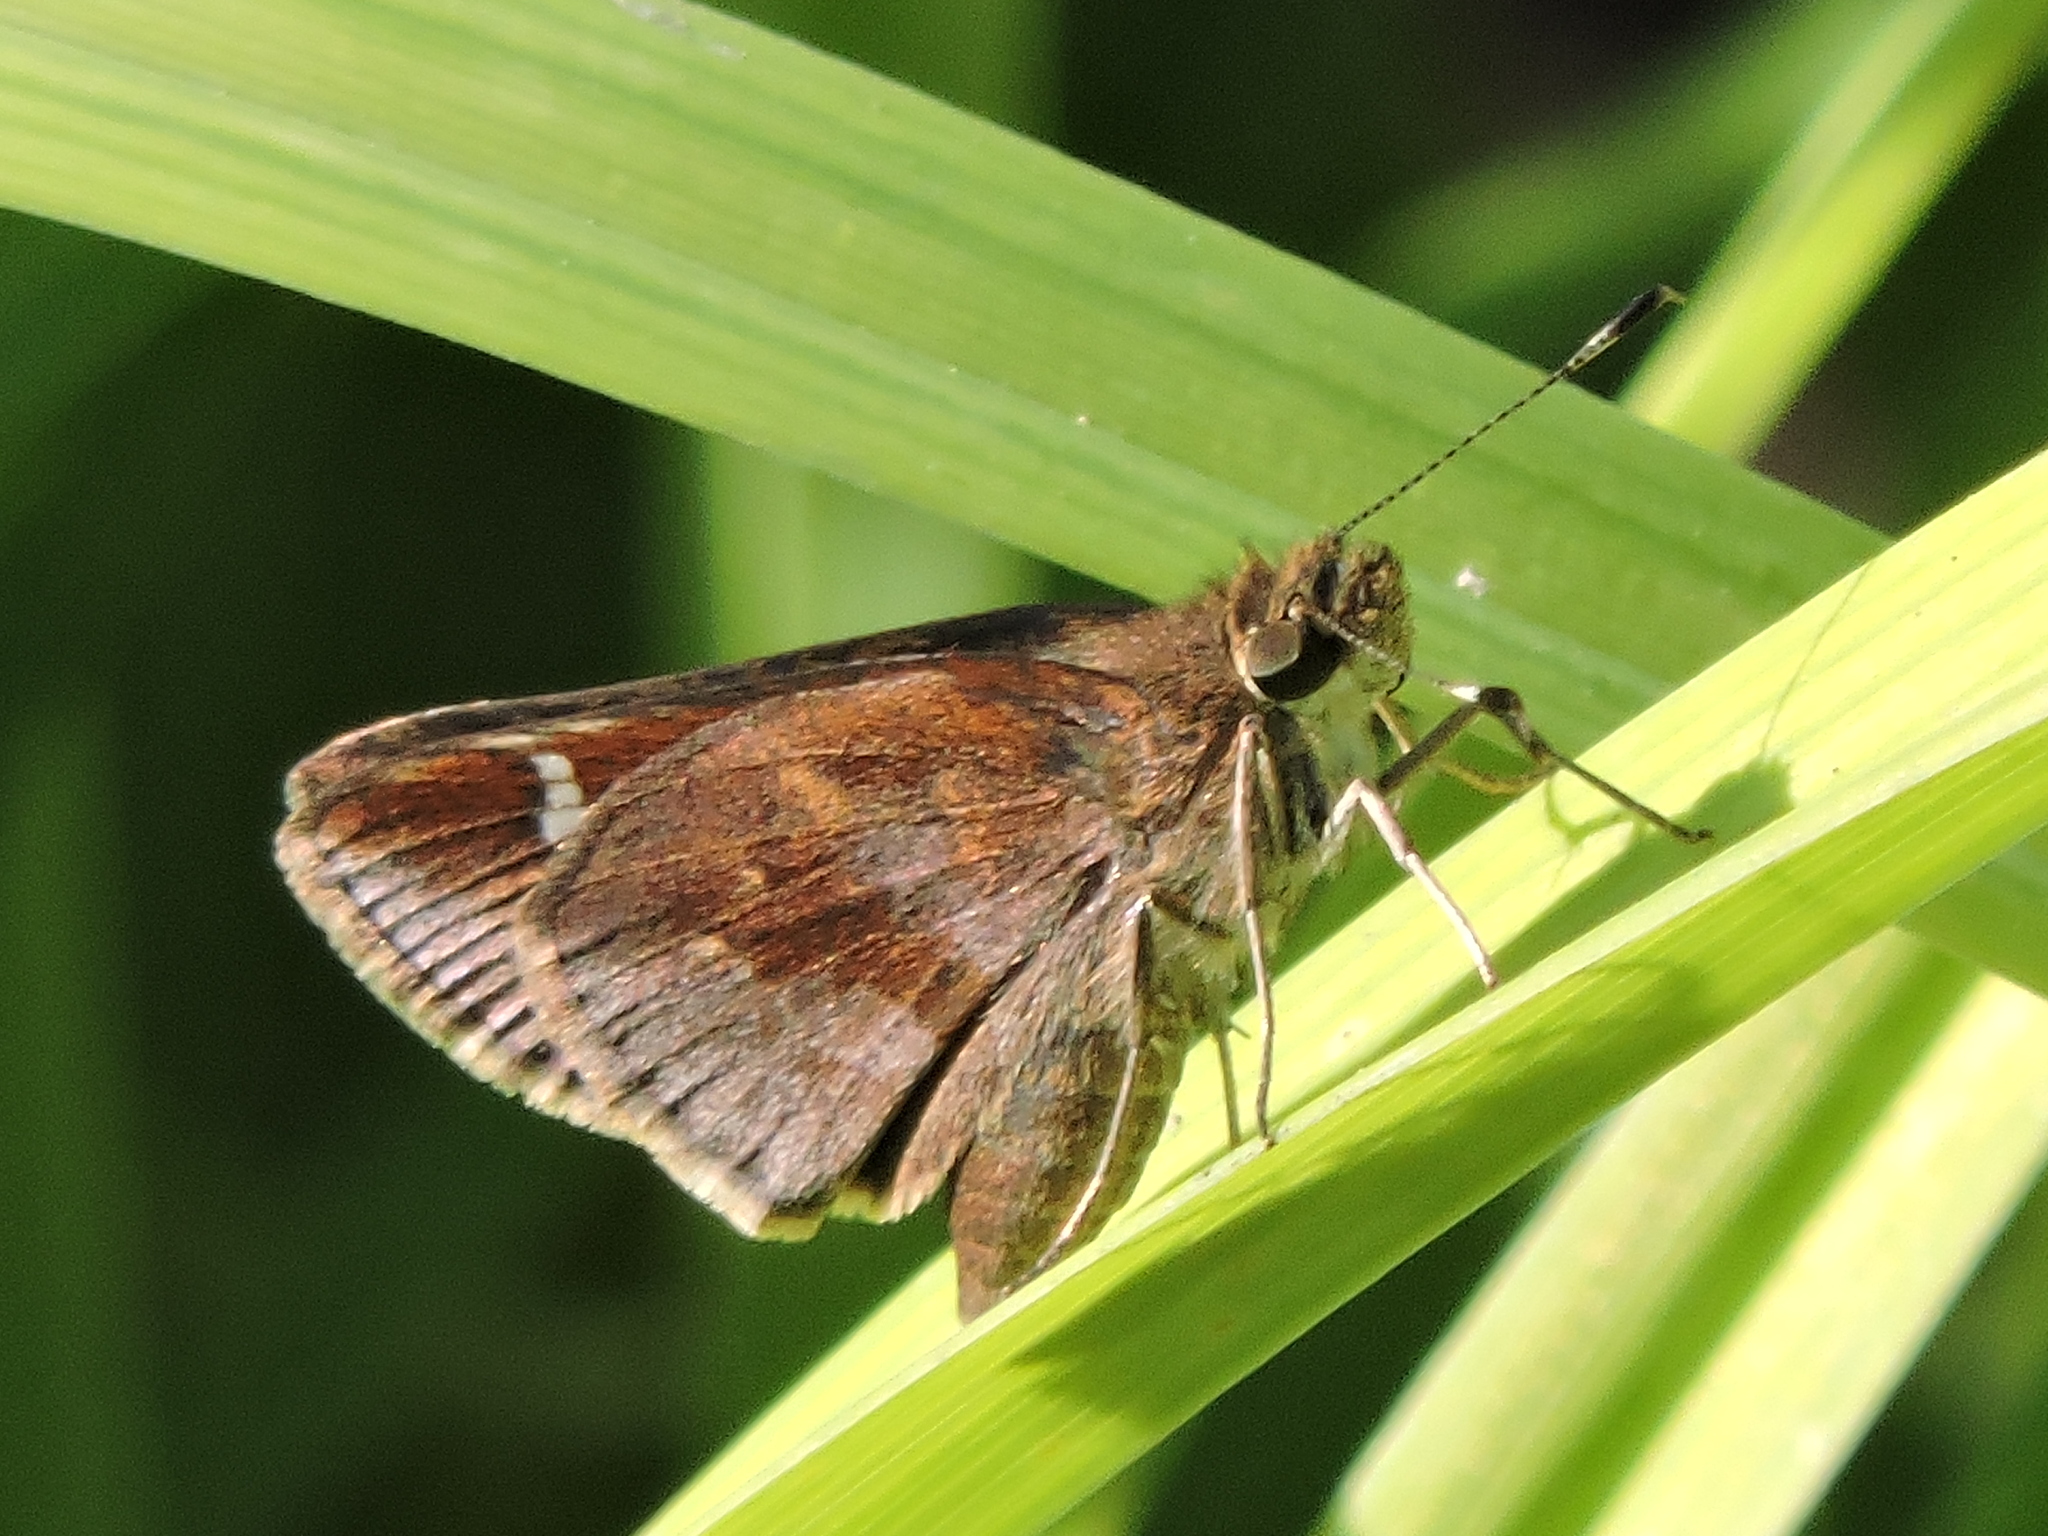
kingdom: Animalia
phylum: Arthropoda
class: Insecta
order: Lepidoptera
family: Hesperiidae
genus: Lerema
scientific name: Lerema accius
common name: Clouded skipper
